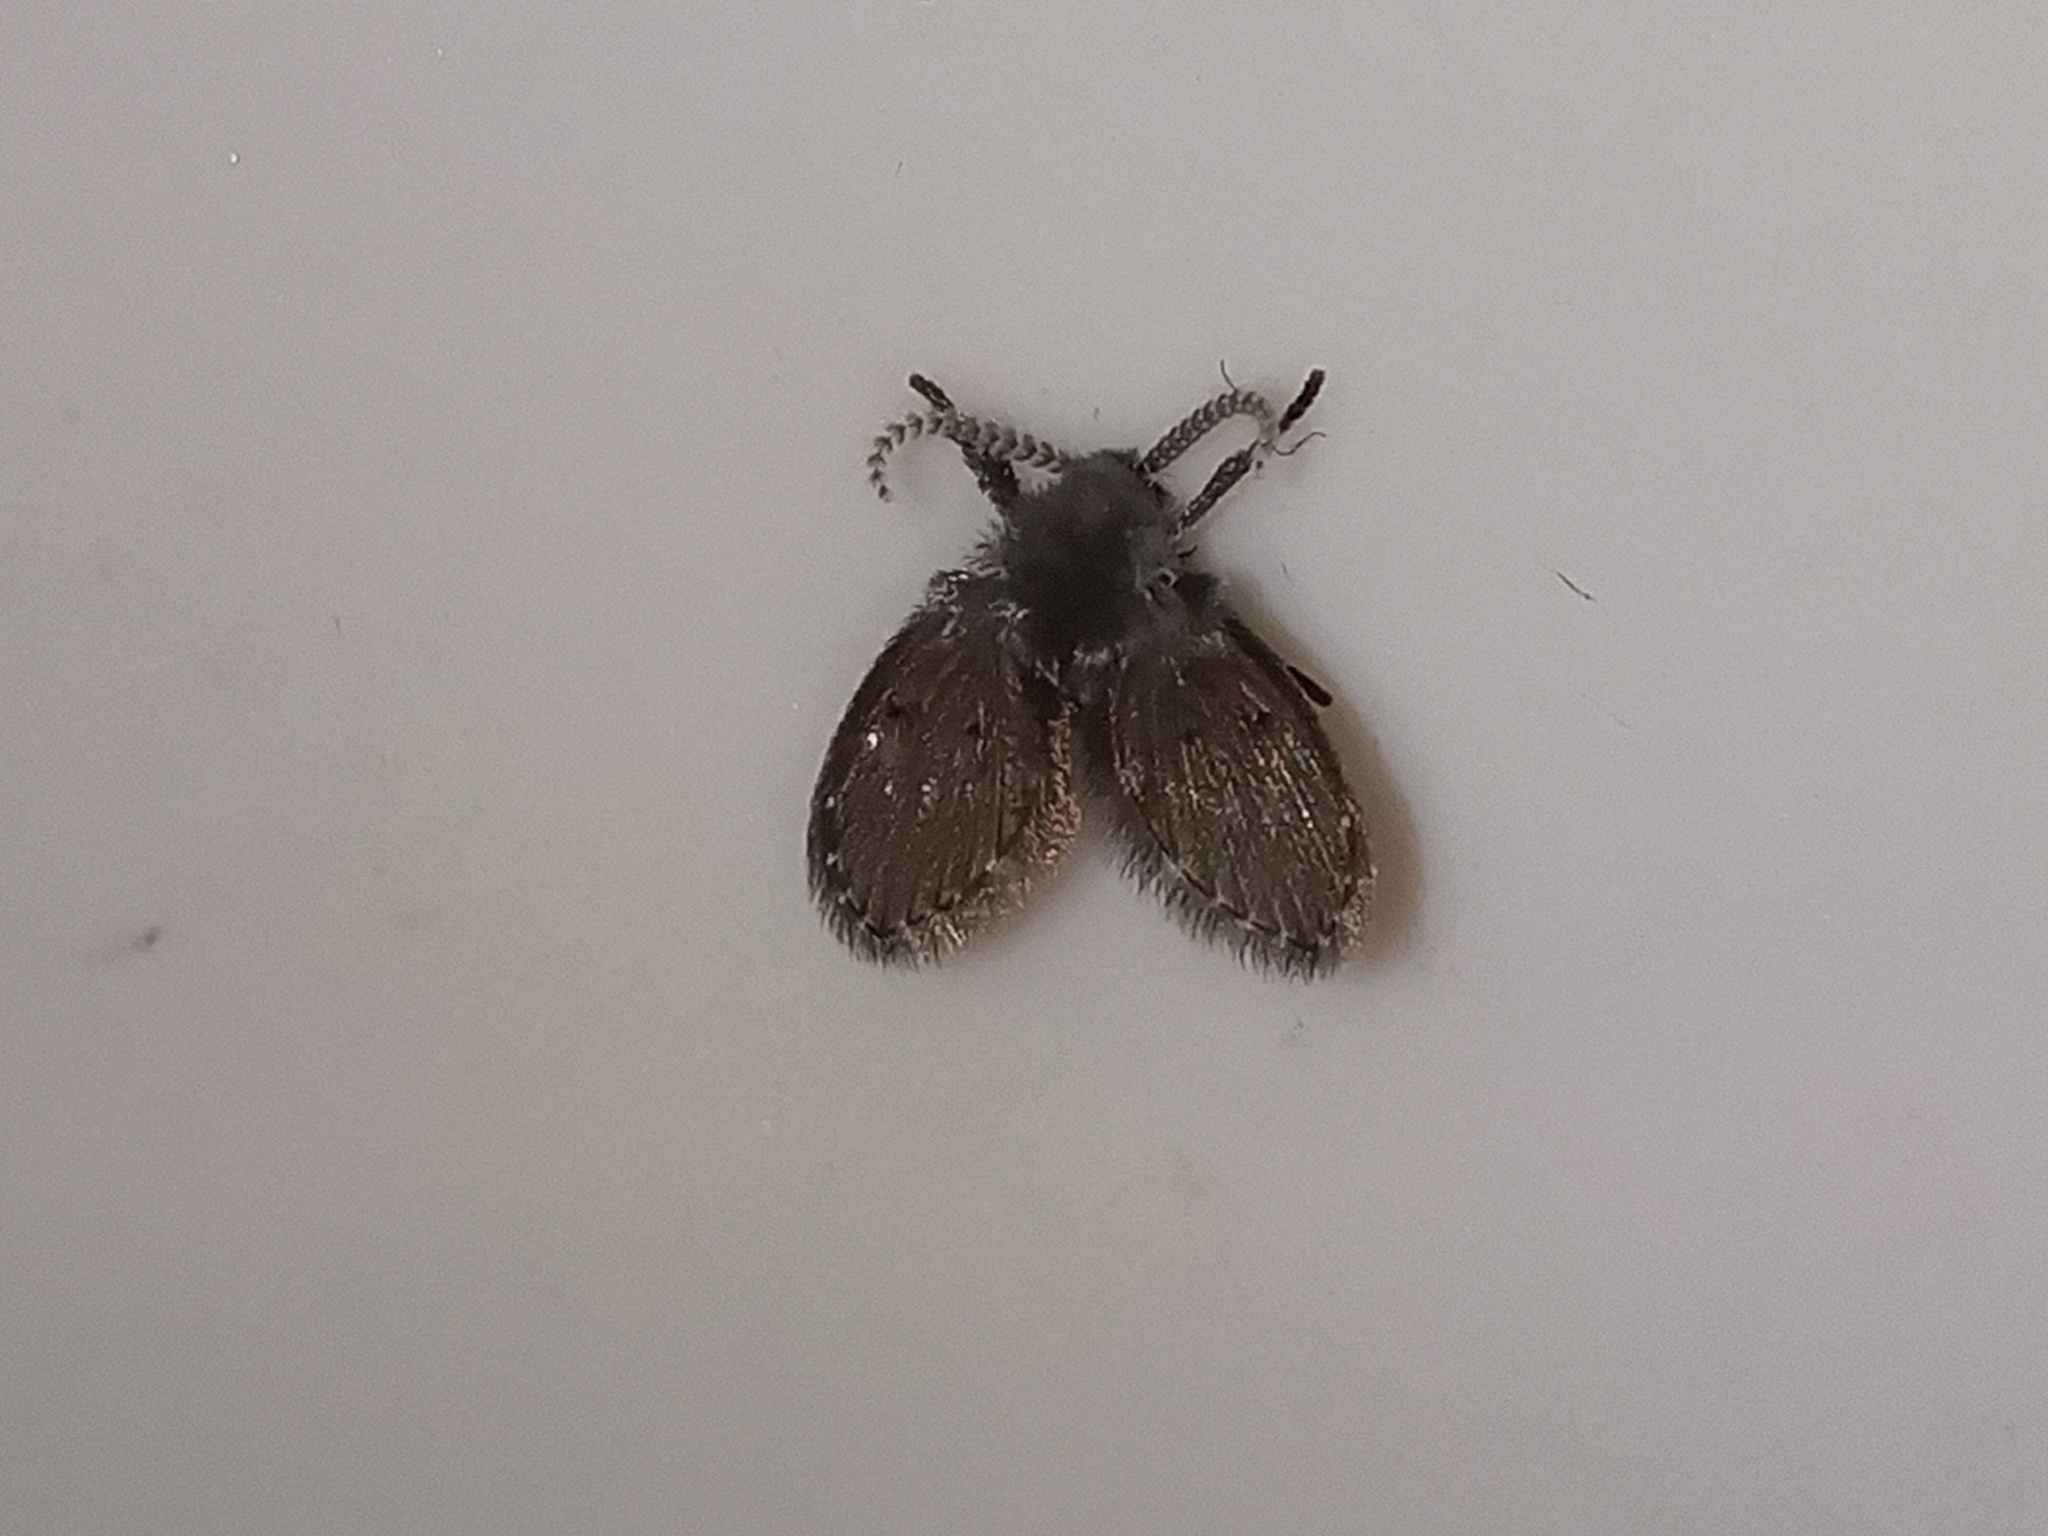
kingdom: Animalia
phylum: Arthropoda
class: Insecta
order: Diptera
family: Psychodidae
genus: Clogmia
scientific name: Clogmia albipunctatus
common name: White-spotted moth fly
